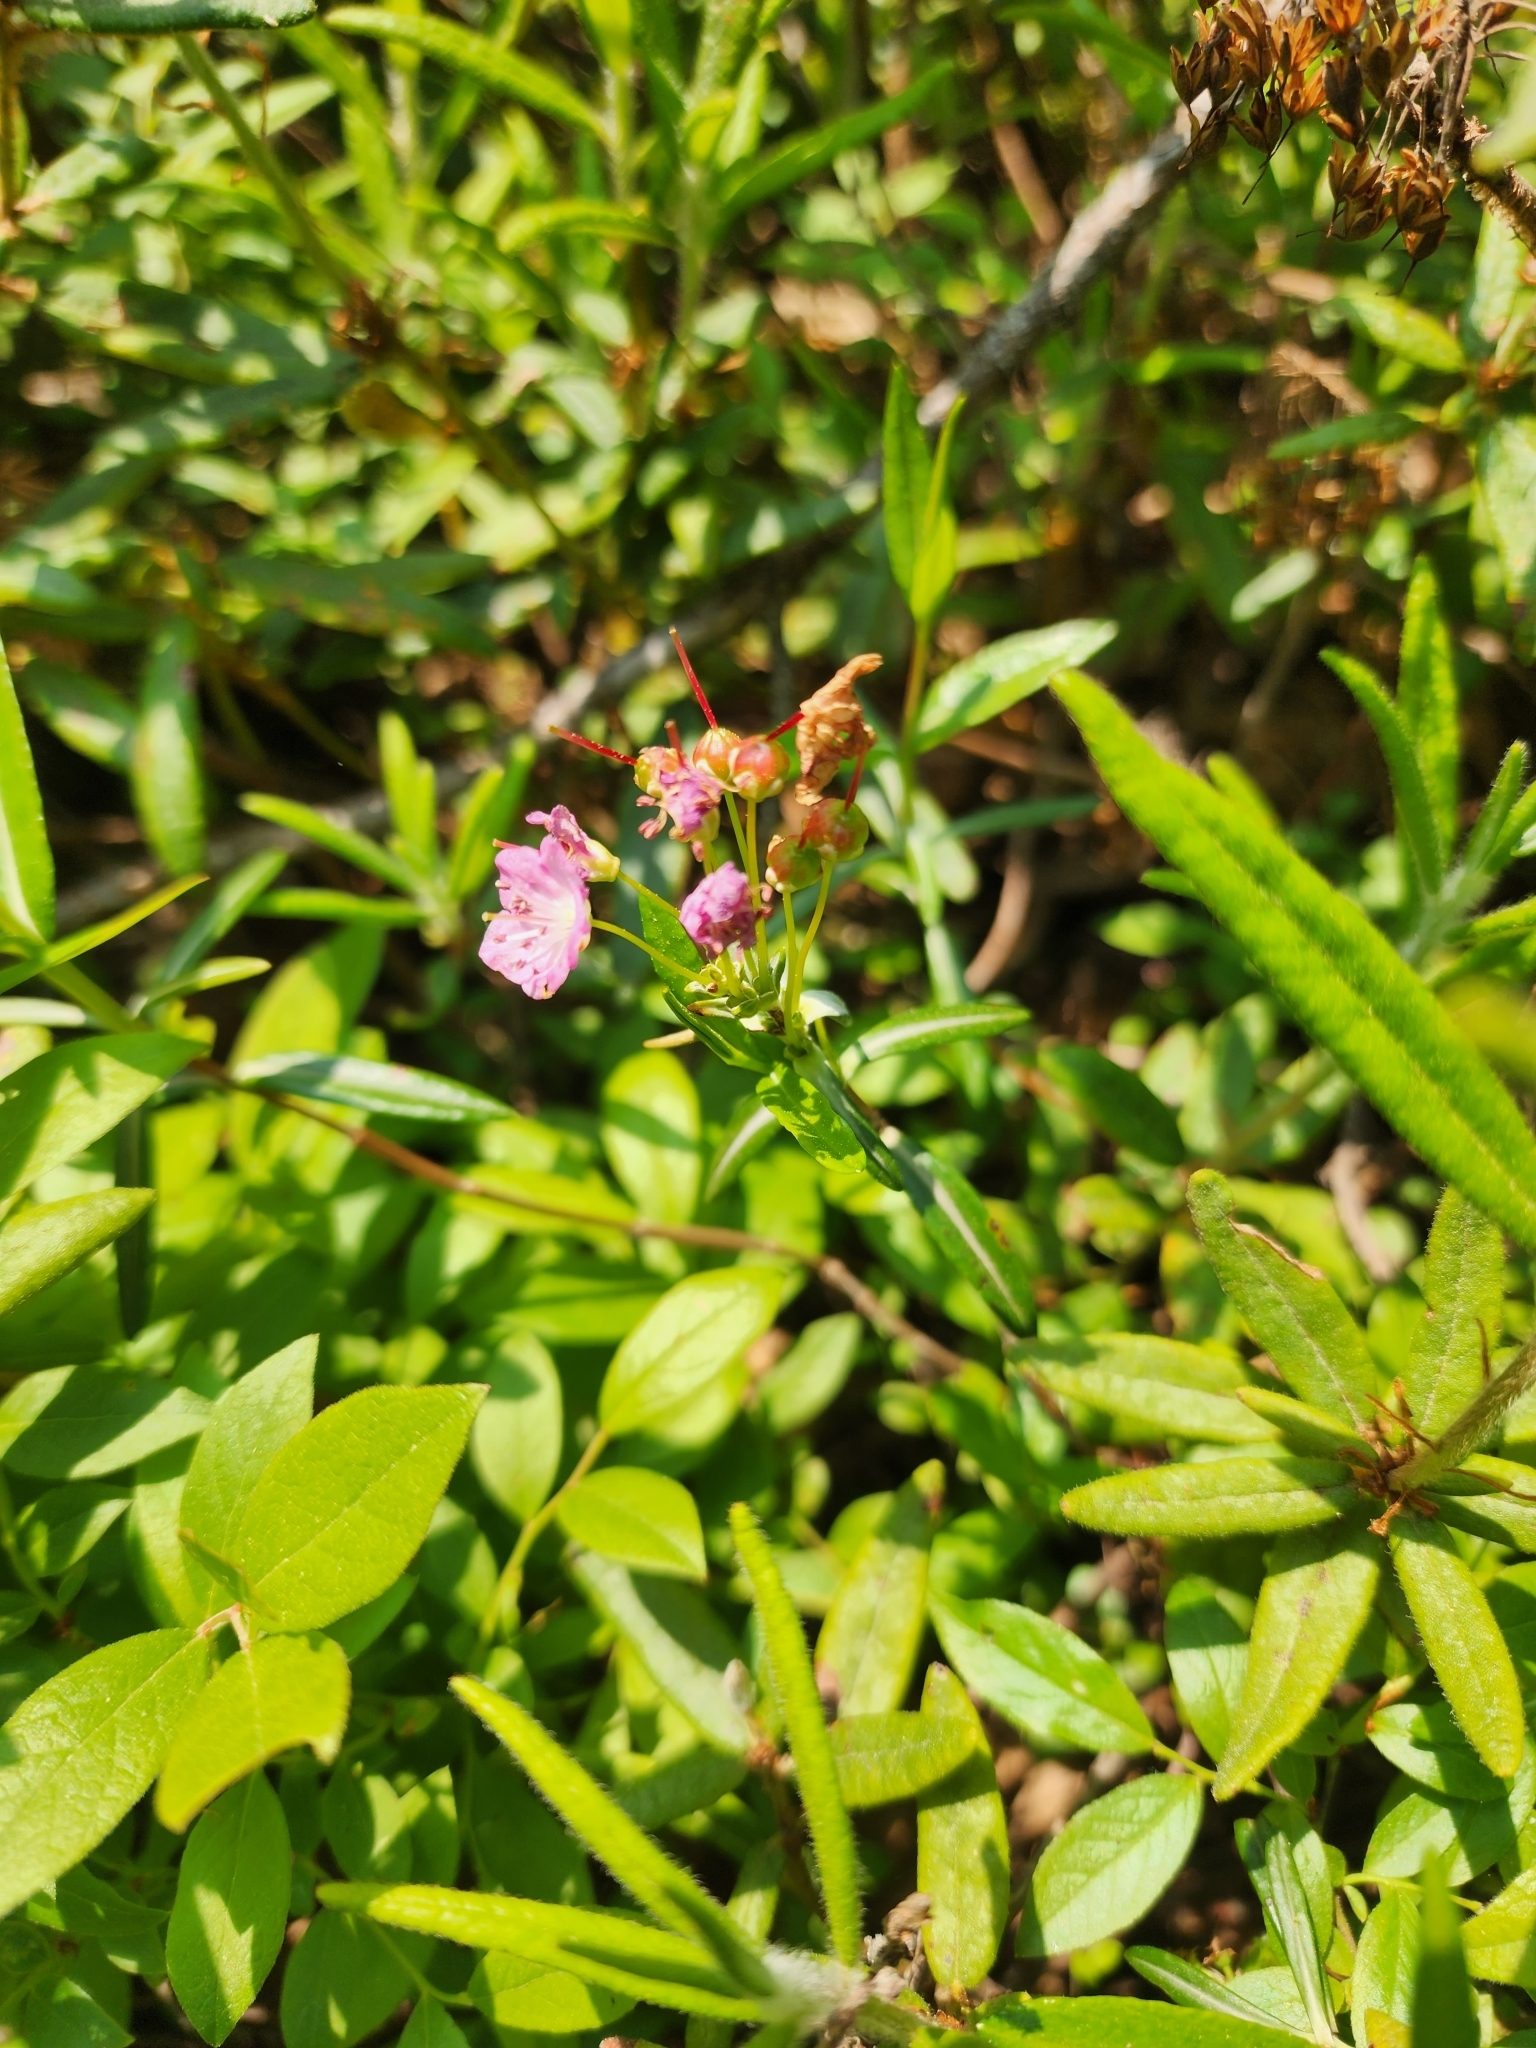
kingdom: Plantae
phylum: Tracheophyta
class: Magnoliopsida
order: Ericales
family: Ericaceae
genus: Kalmia
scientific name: Kalmia polifolia
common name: Bog-laurel
